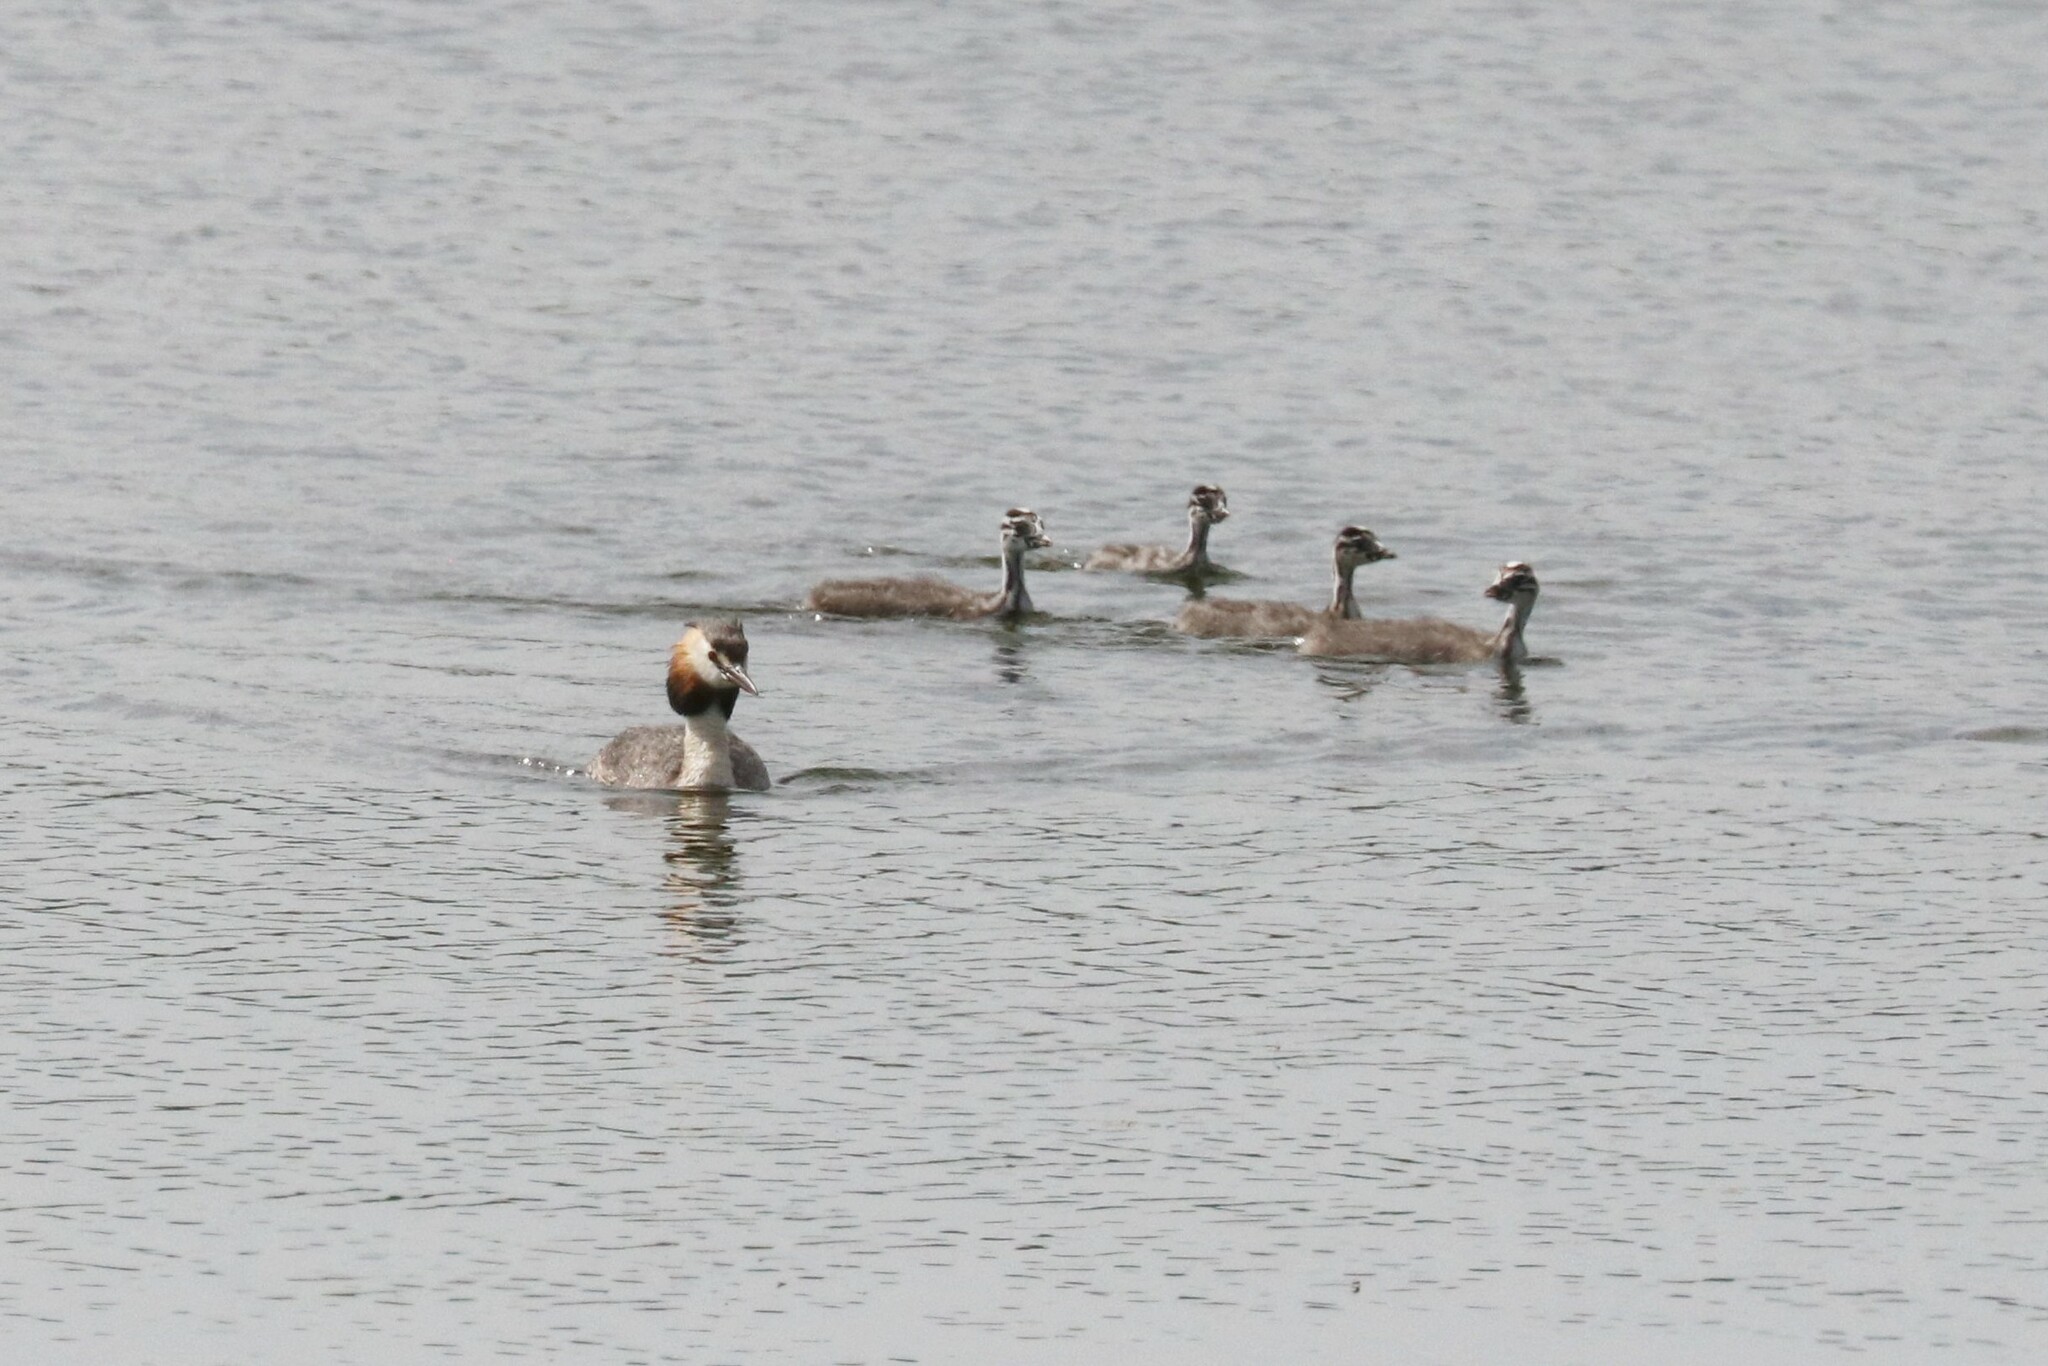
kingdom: Animalia
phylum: Chordata
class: Aves
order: Podicipediformes
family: Podicipedidae
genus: Podiceps
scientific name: Podiceps cristatus
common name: Great crested grebe
